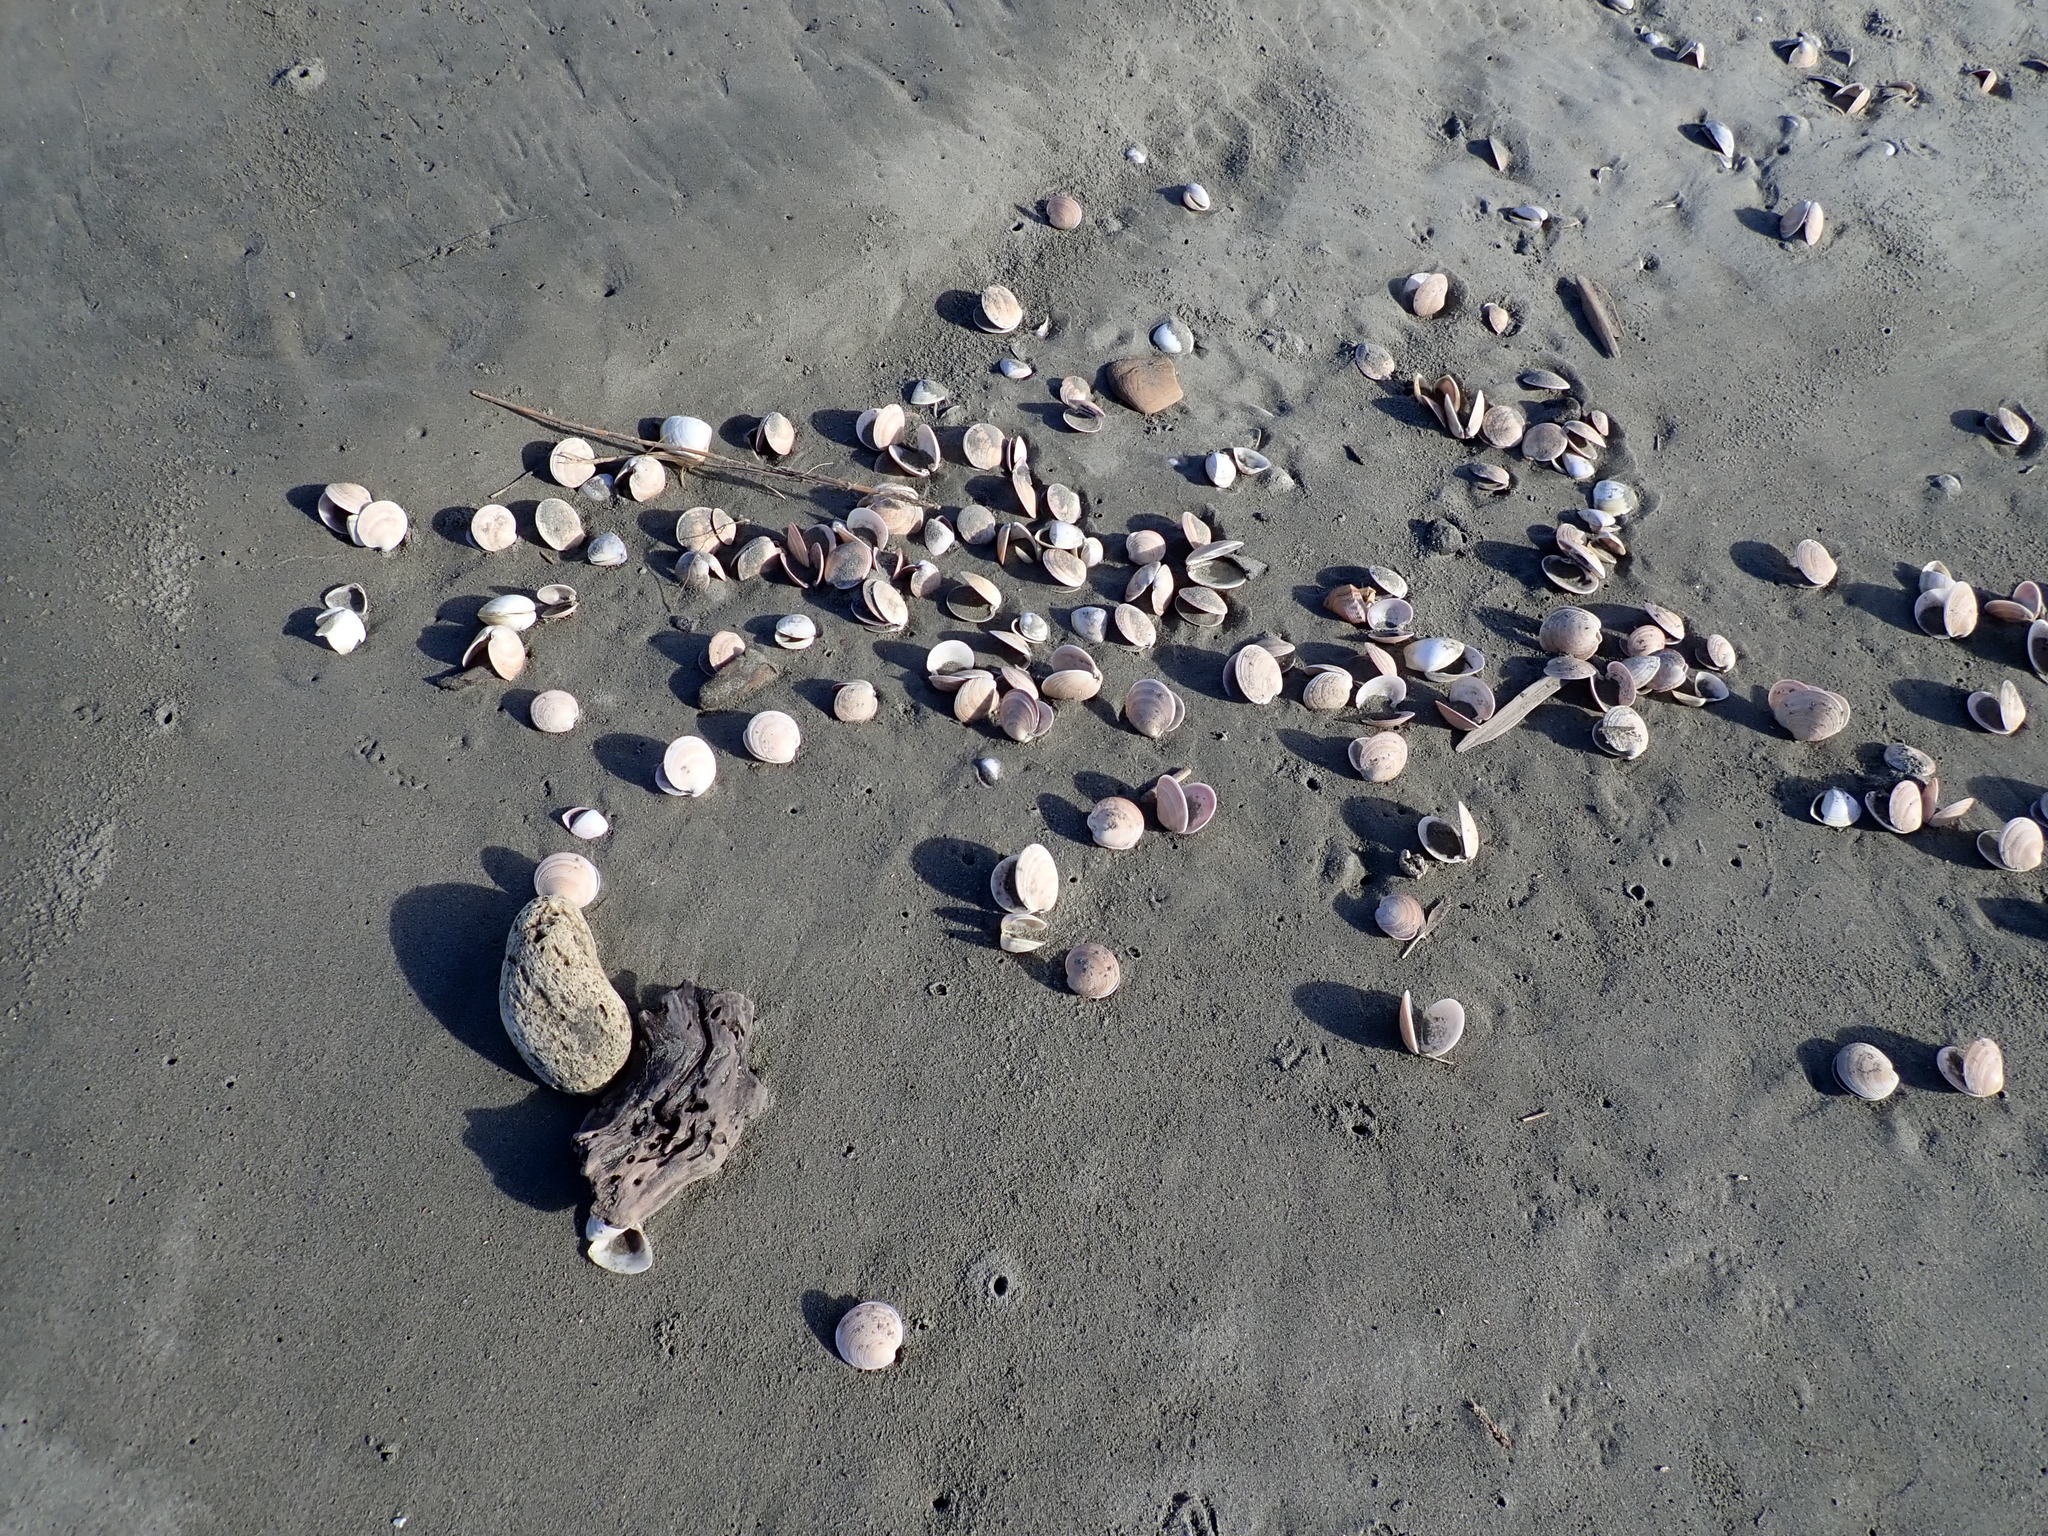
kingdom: Animalia
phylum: Mollusca
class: Bivalvia
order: Venerida
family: Veneridae
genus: Dosinia
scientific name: Dosinia anus
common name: Old-woman dosinia
